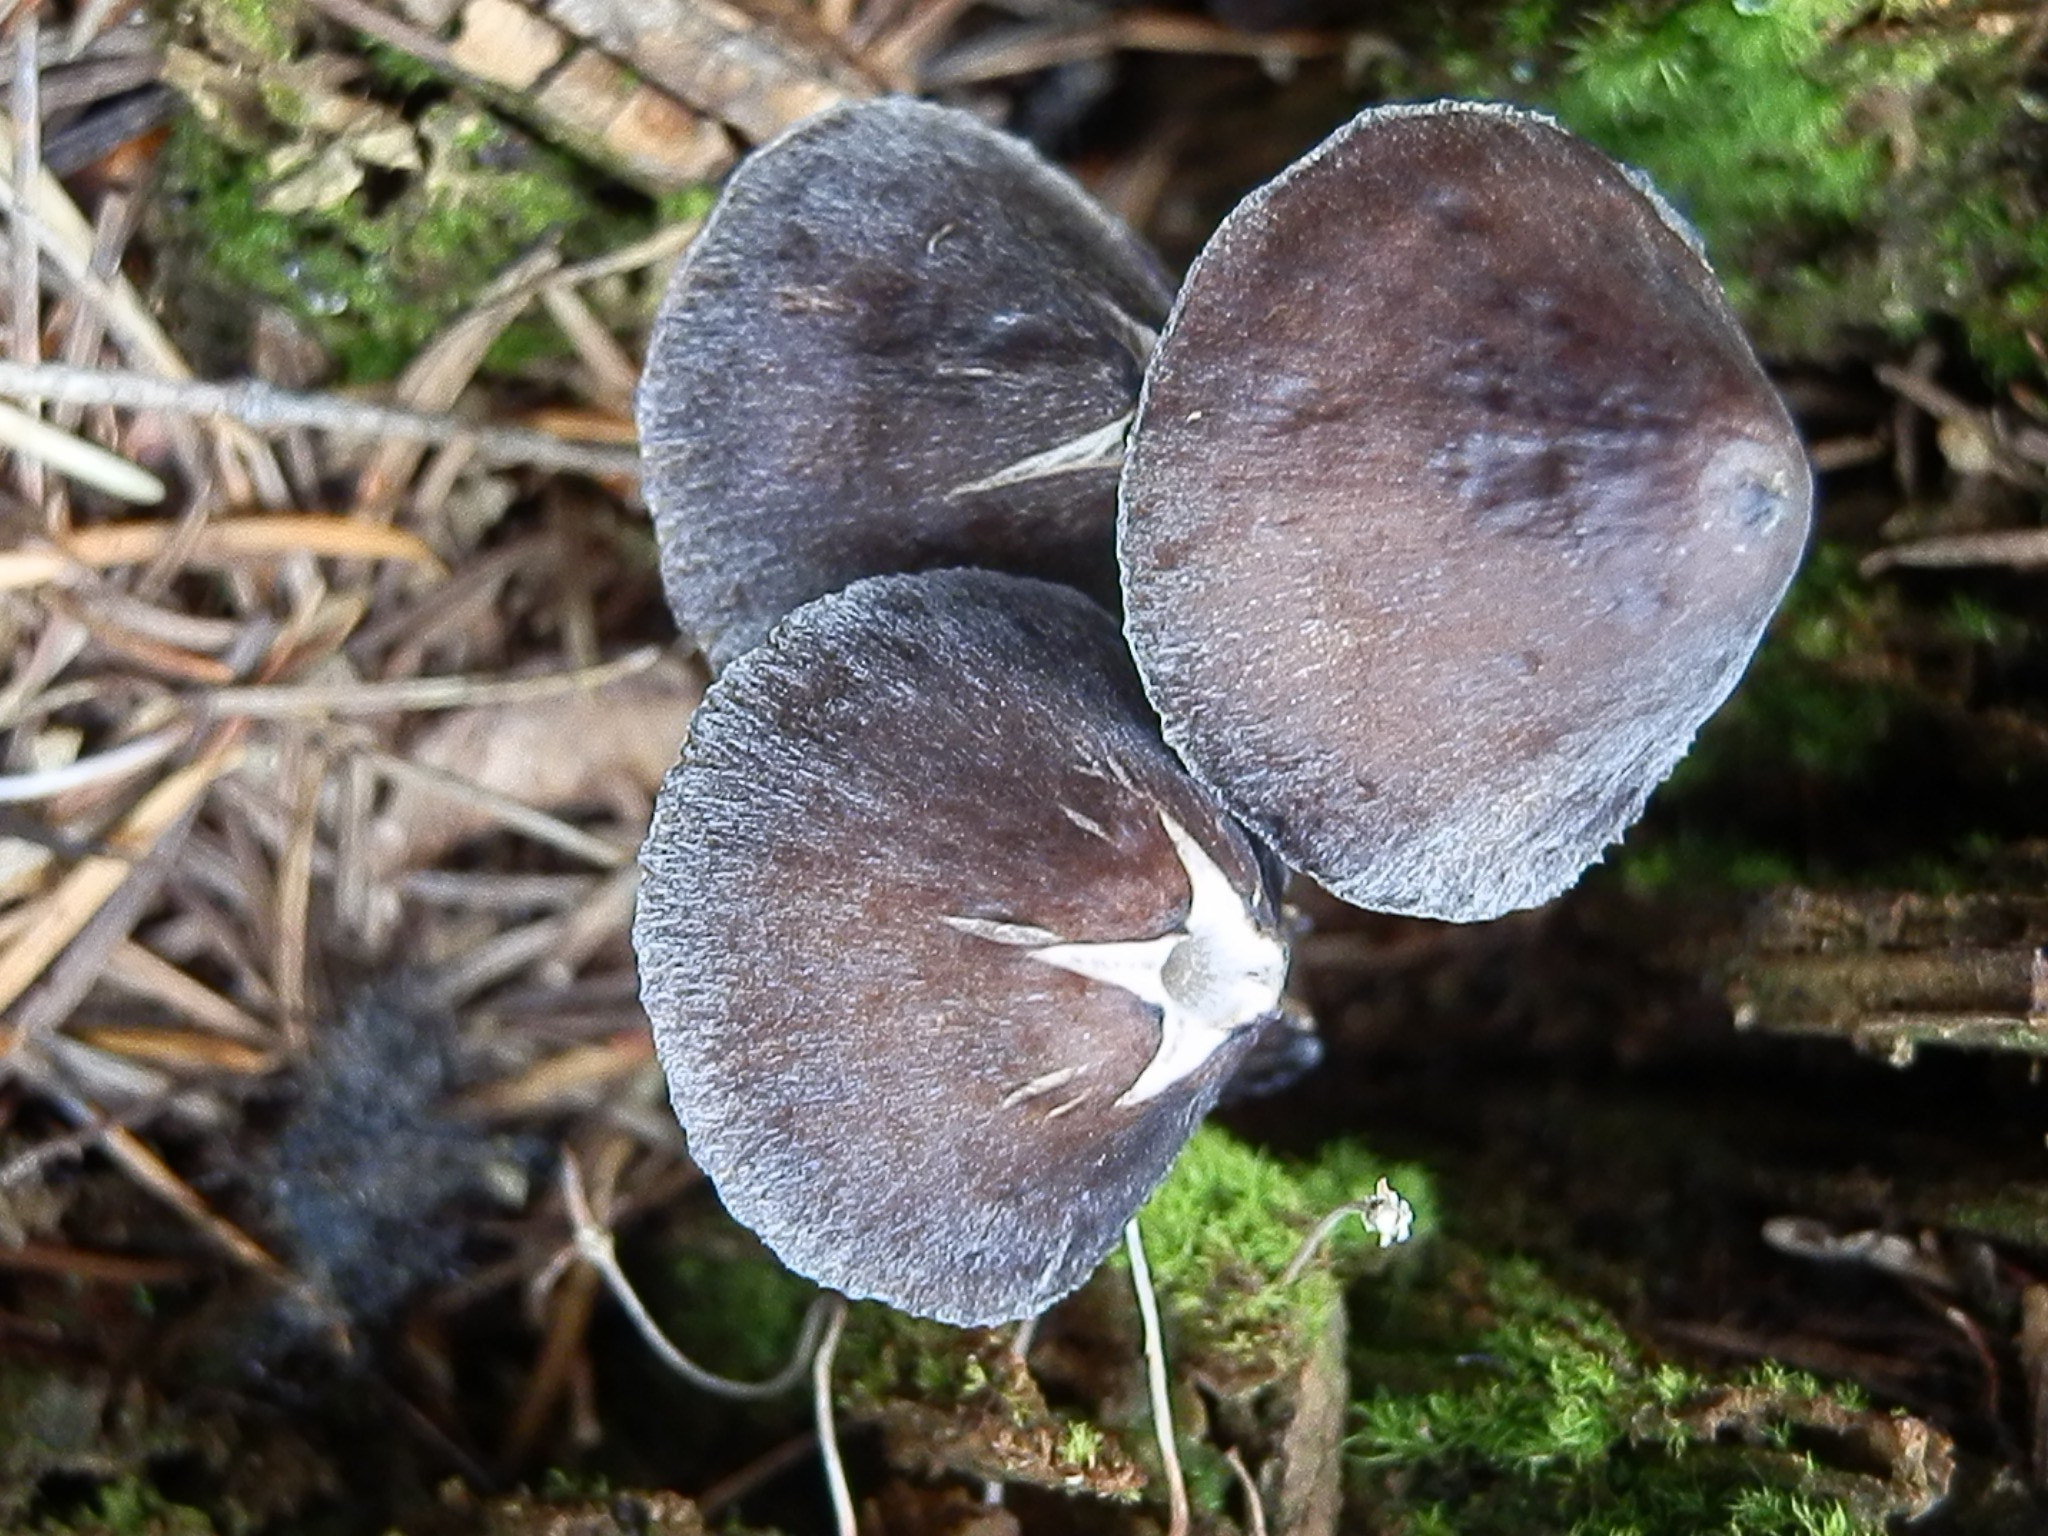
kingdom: Fungi
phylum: Basidiomycota
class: Agaricomycetes
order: Agaricales
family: Mycenaceae
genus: Mycena
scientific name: Mycena alcalina
